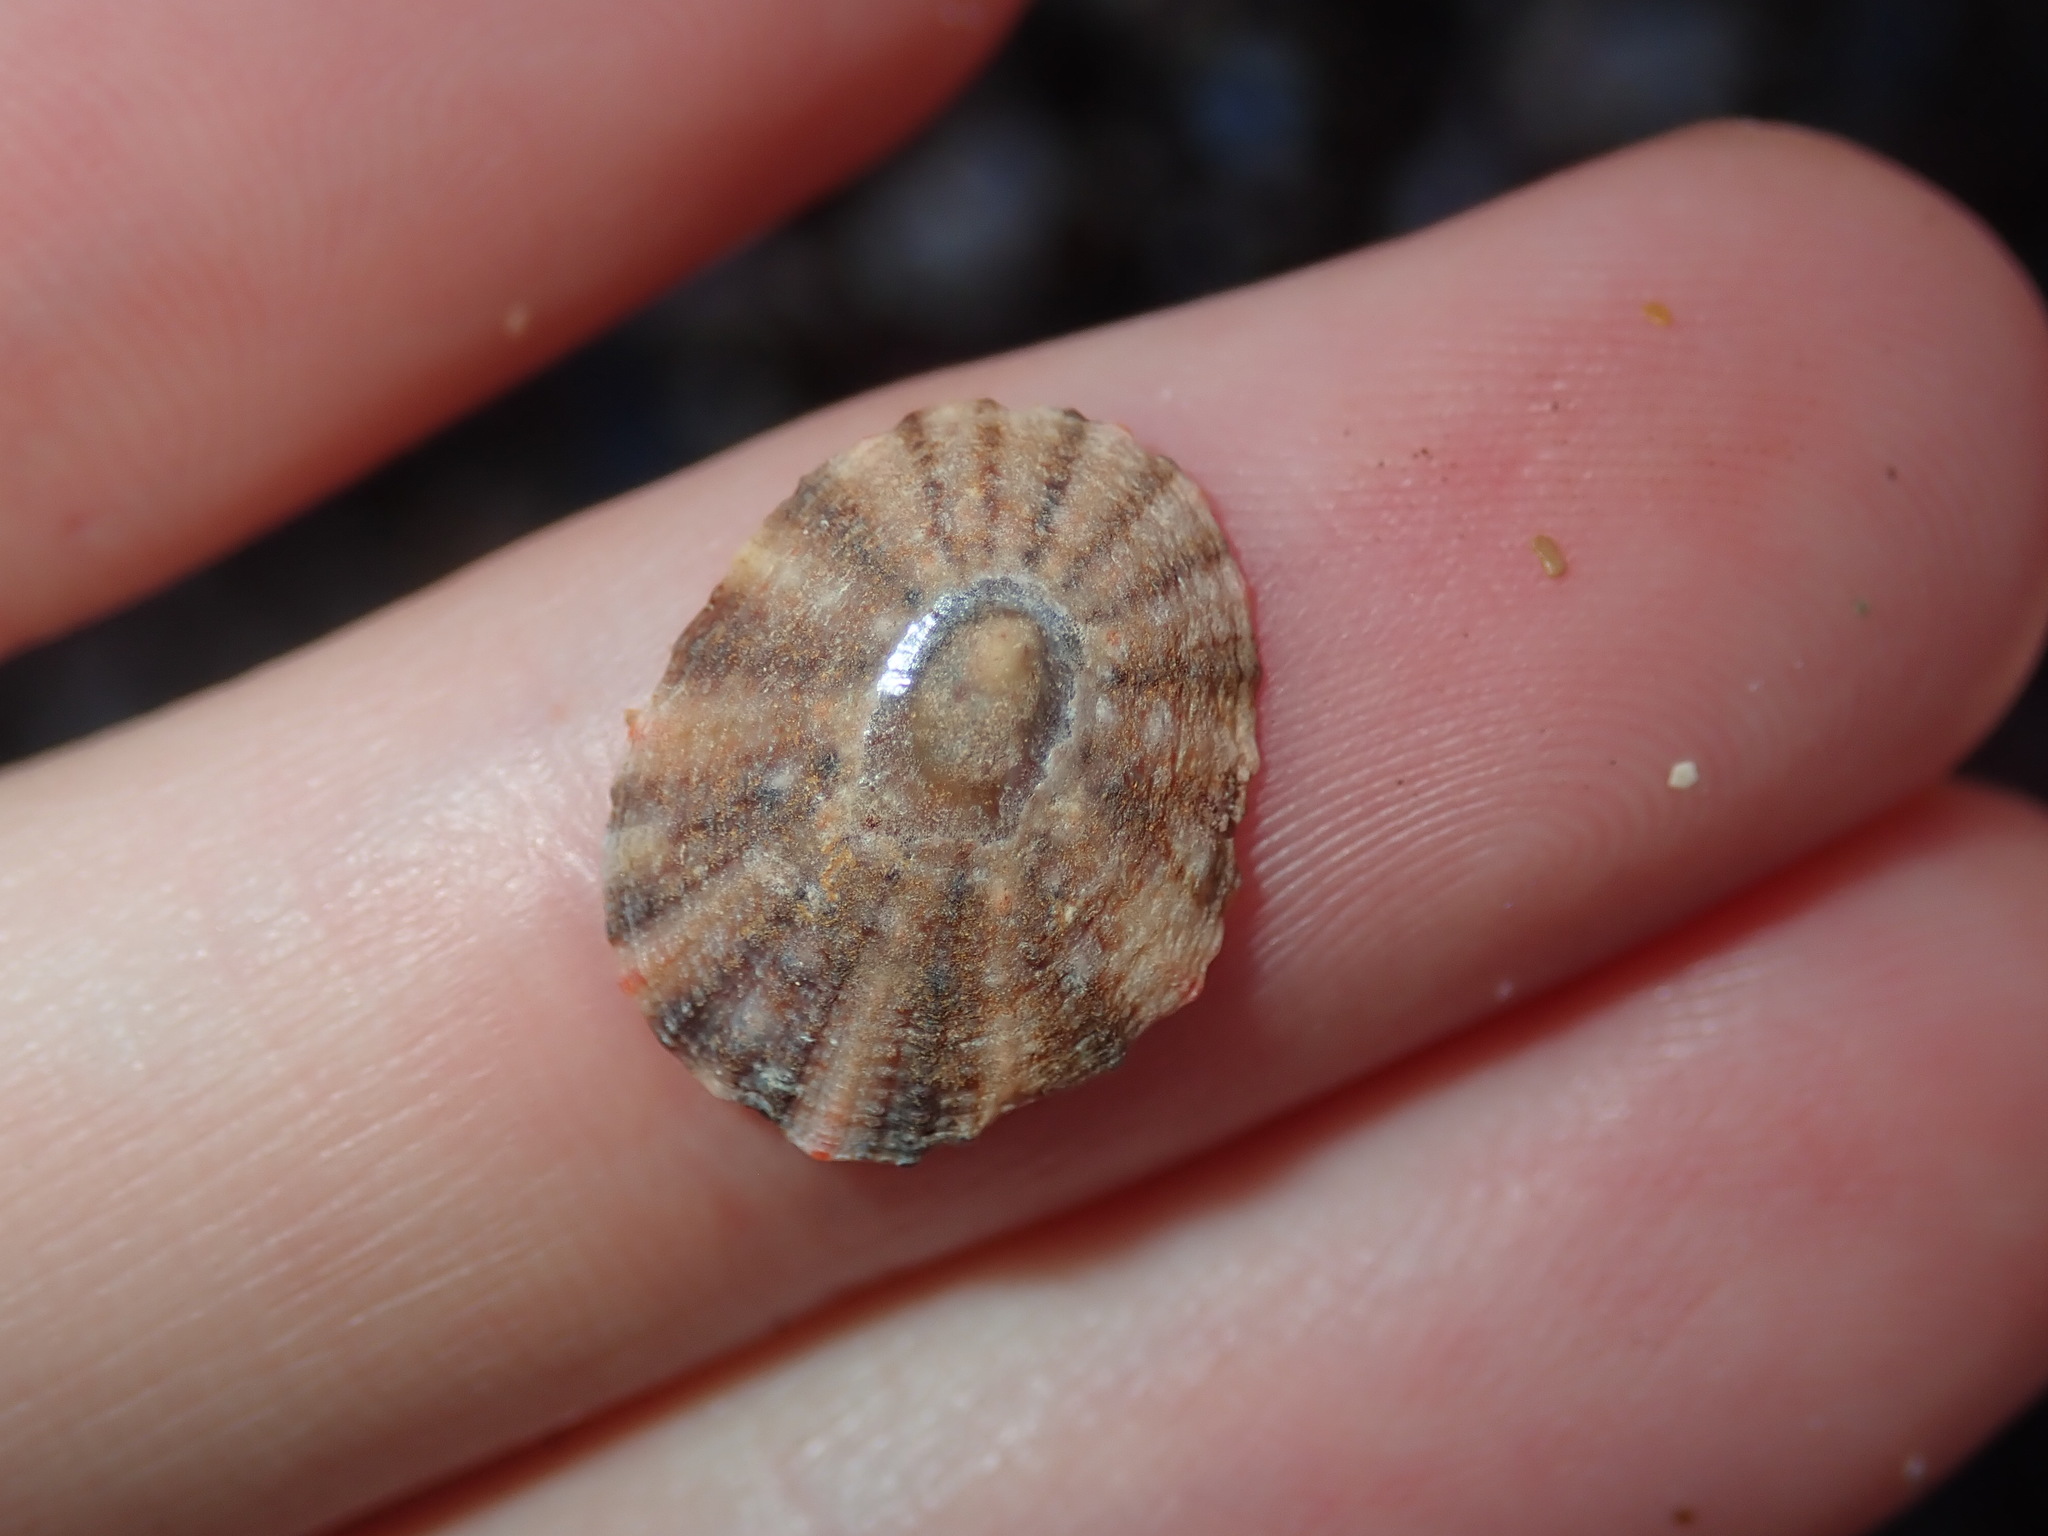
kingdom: Animalia
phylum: Mollusca
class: Gastropoda
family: Nacellidae
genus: Cellana
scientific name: Cellana tramoserica
